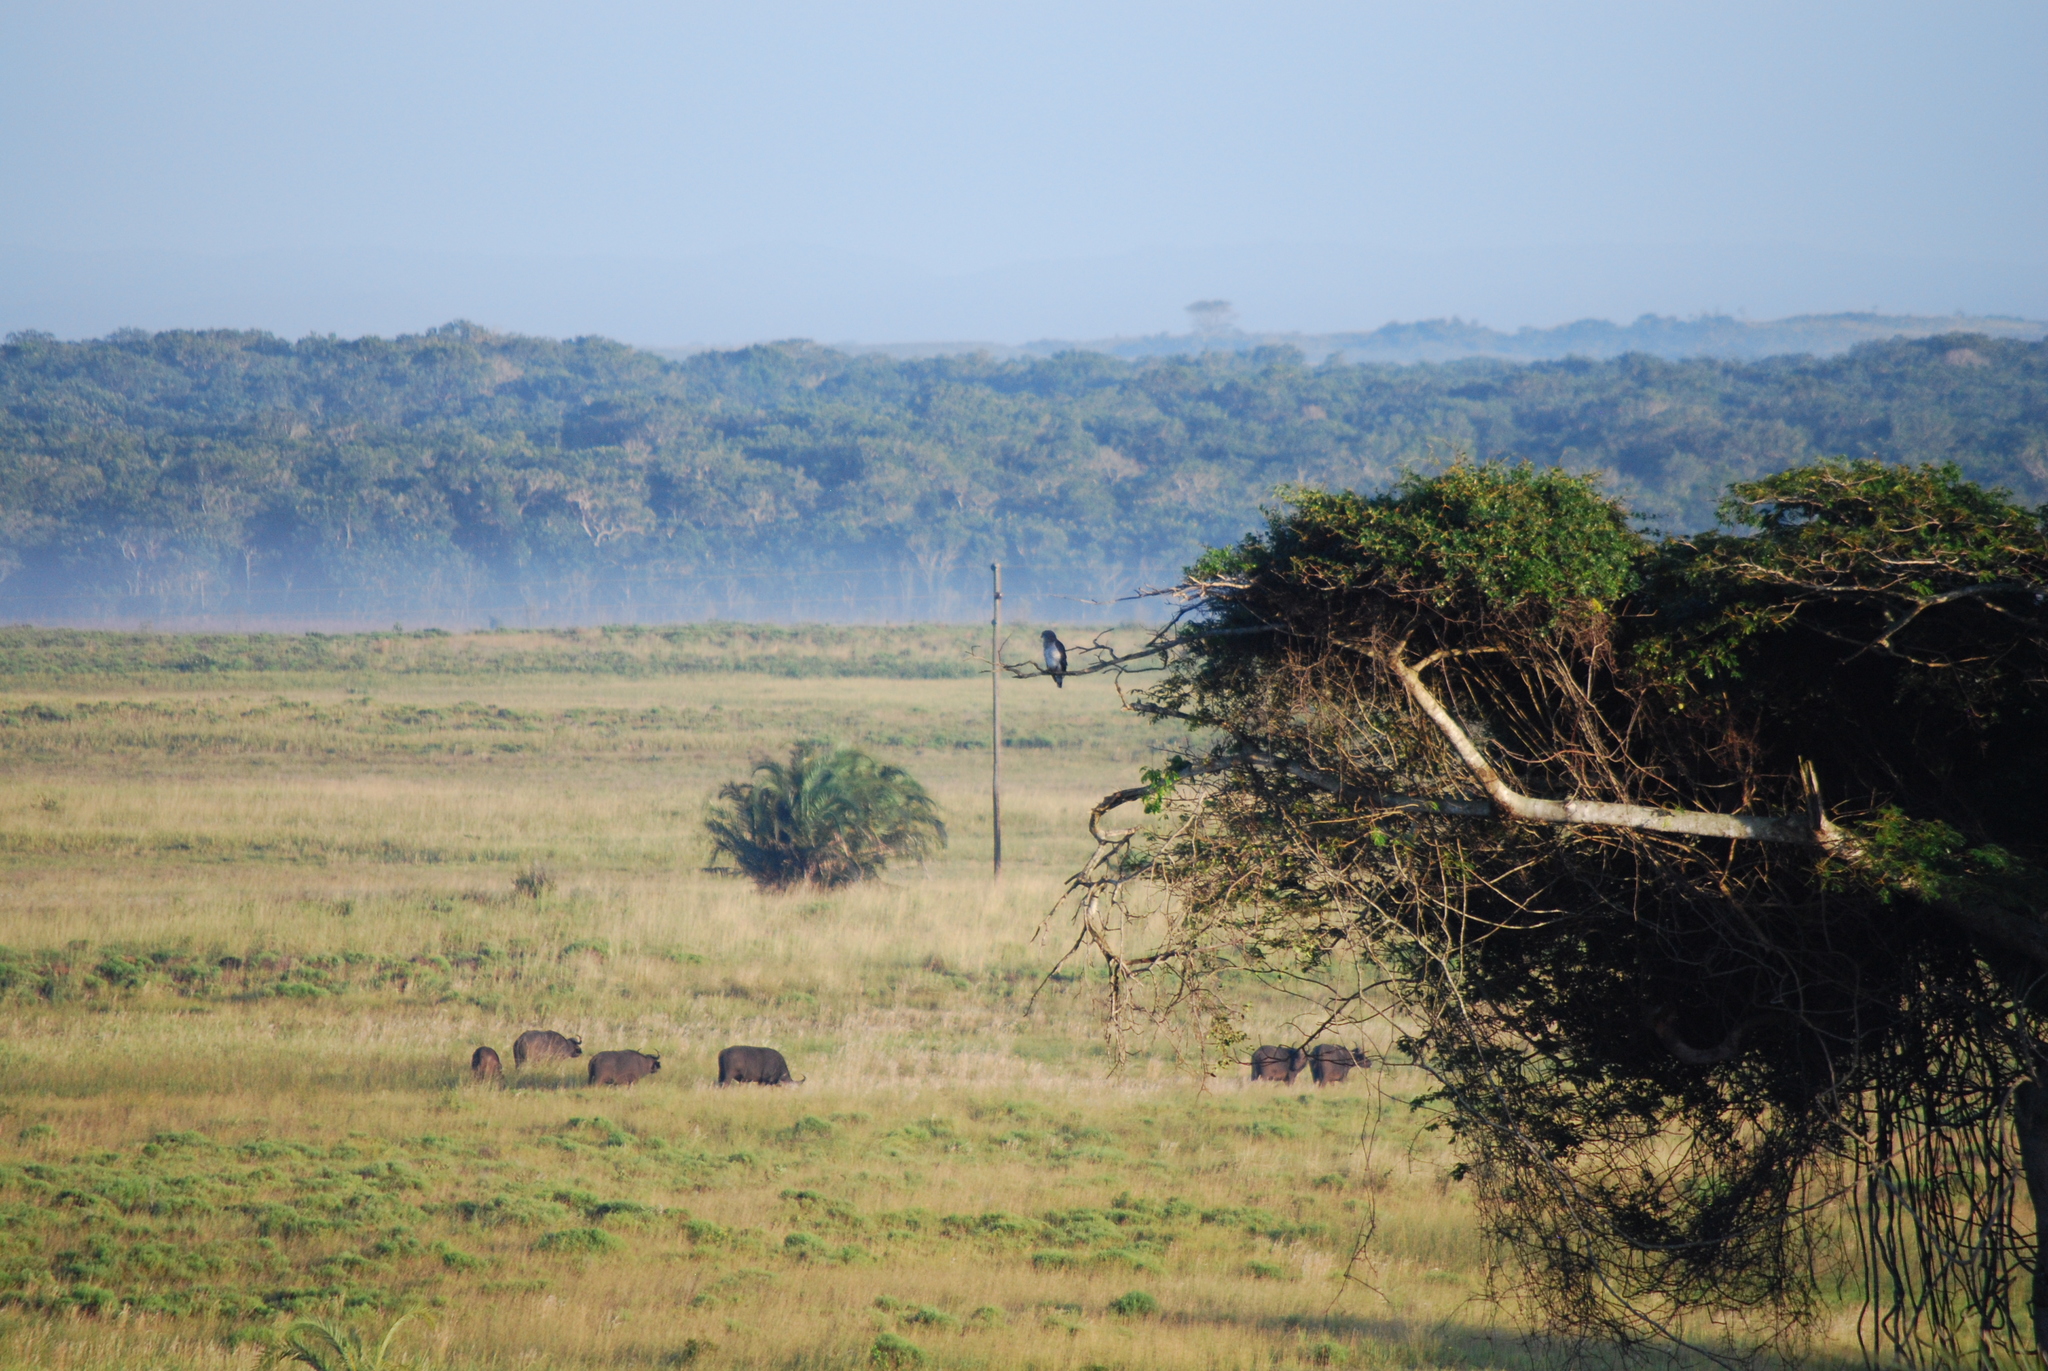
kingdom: Animalia
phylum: Chordata
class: Mammalia
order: Artiodactyla
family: Bovidae
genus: Syncerus
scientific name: Syncerus caffer
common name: African buffalo
